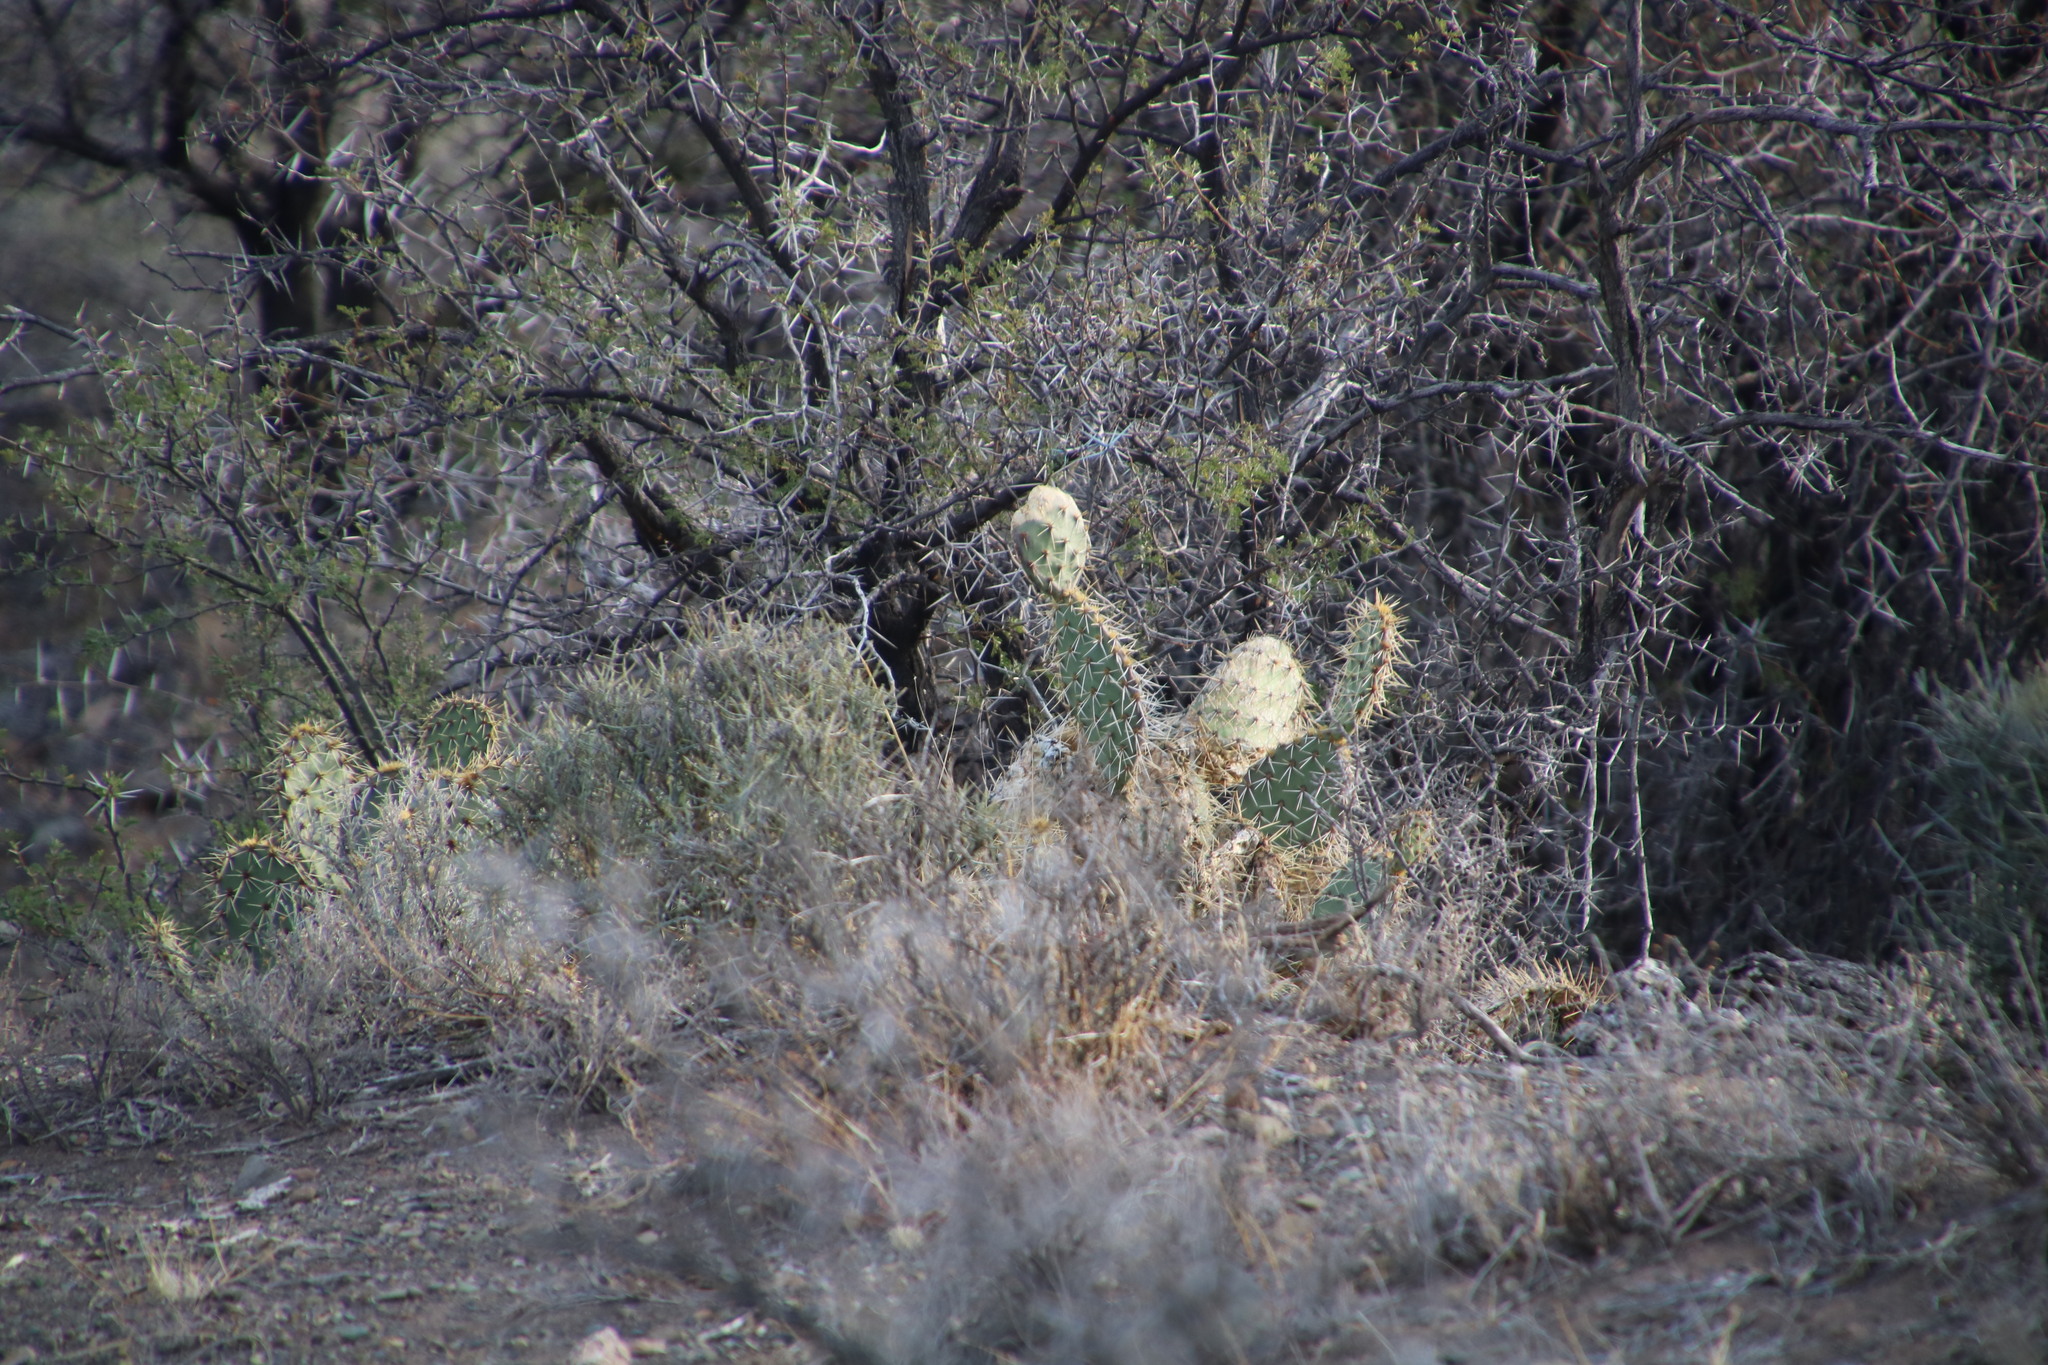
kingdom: Plantae
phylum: Tracheophyta
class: Magnoliopsida
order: Caryophyllales
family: Cactaceae
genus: Opuntia
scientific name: Opuntia rastrera
